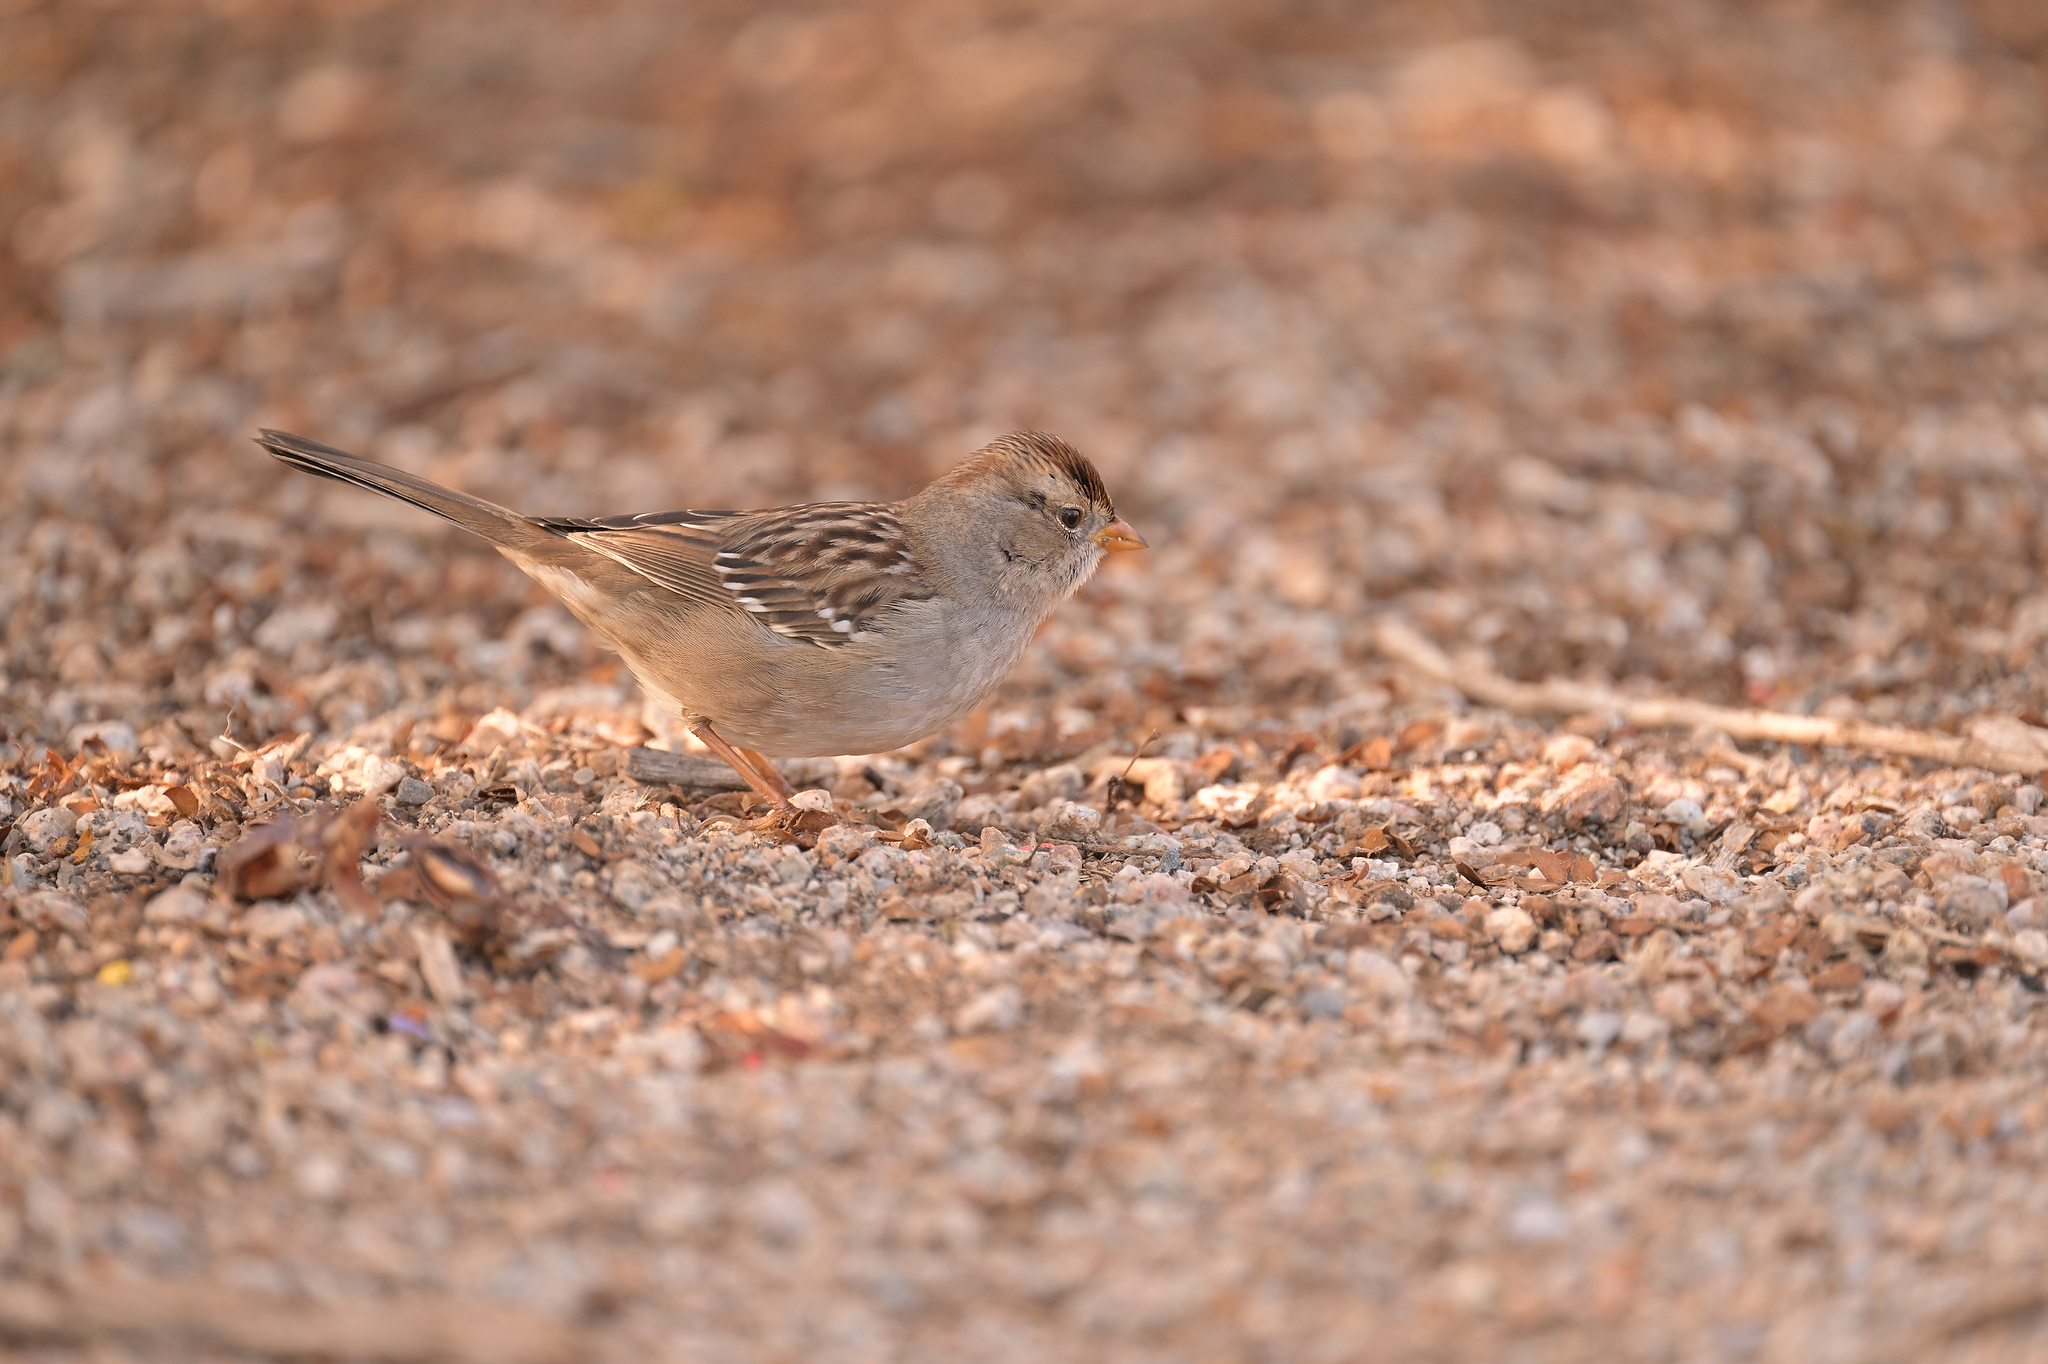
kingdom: Animalia
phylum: Chordata
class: Aves
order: Passeriformes
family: Passerellidae
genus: Zonotrichia
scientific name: Zonotrichia leucophrys
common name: White-crowned sparrow
